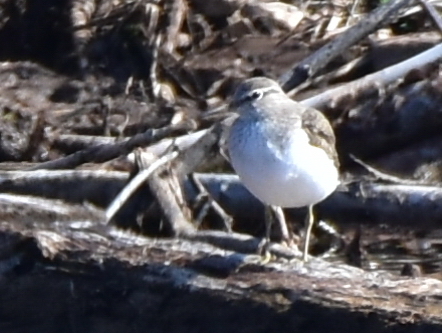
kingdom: Animalia
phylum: Chordata
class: Aves
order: Charadriiformes
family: Scolopacidae
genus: Actitis
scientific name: Actitis hypoleucos
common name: Common sandpiper
